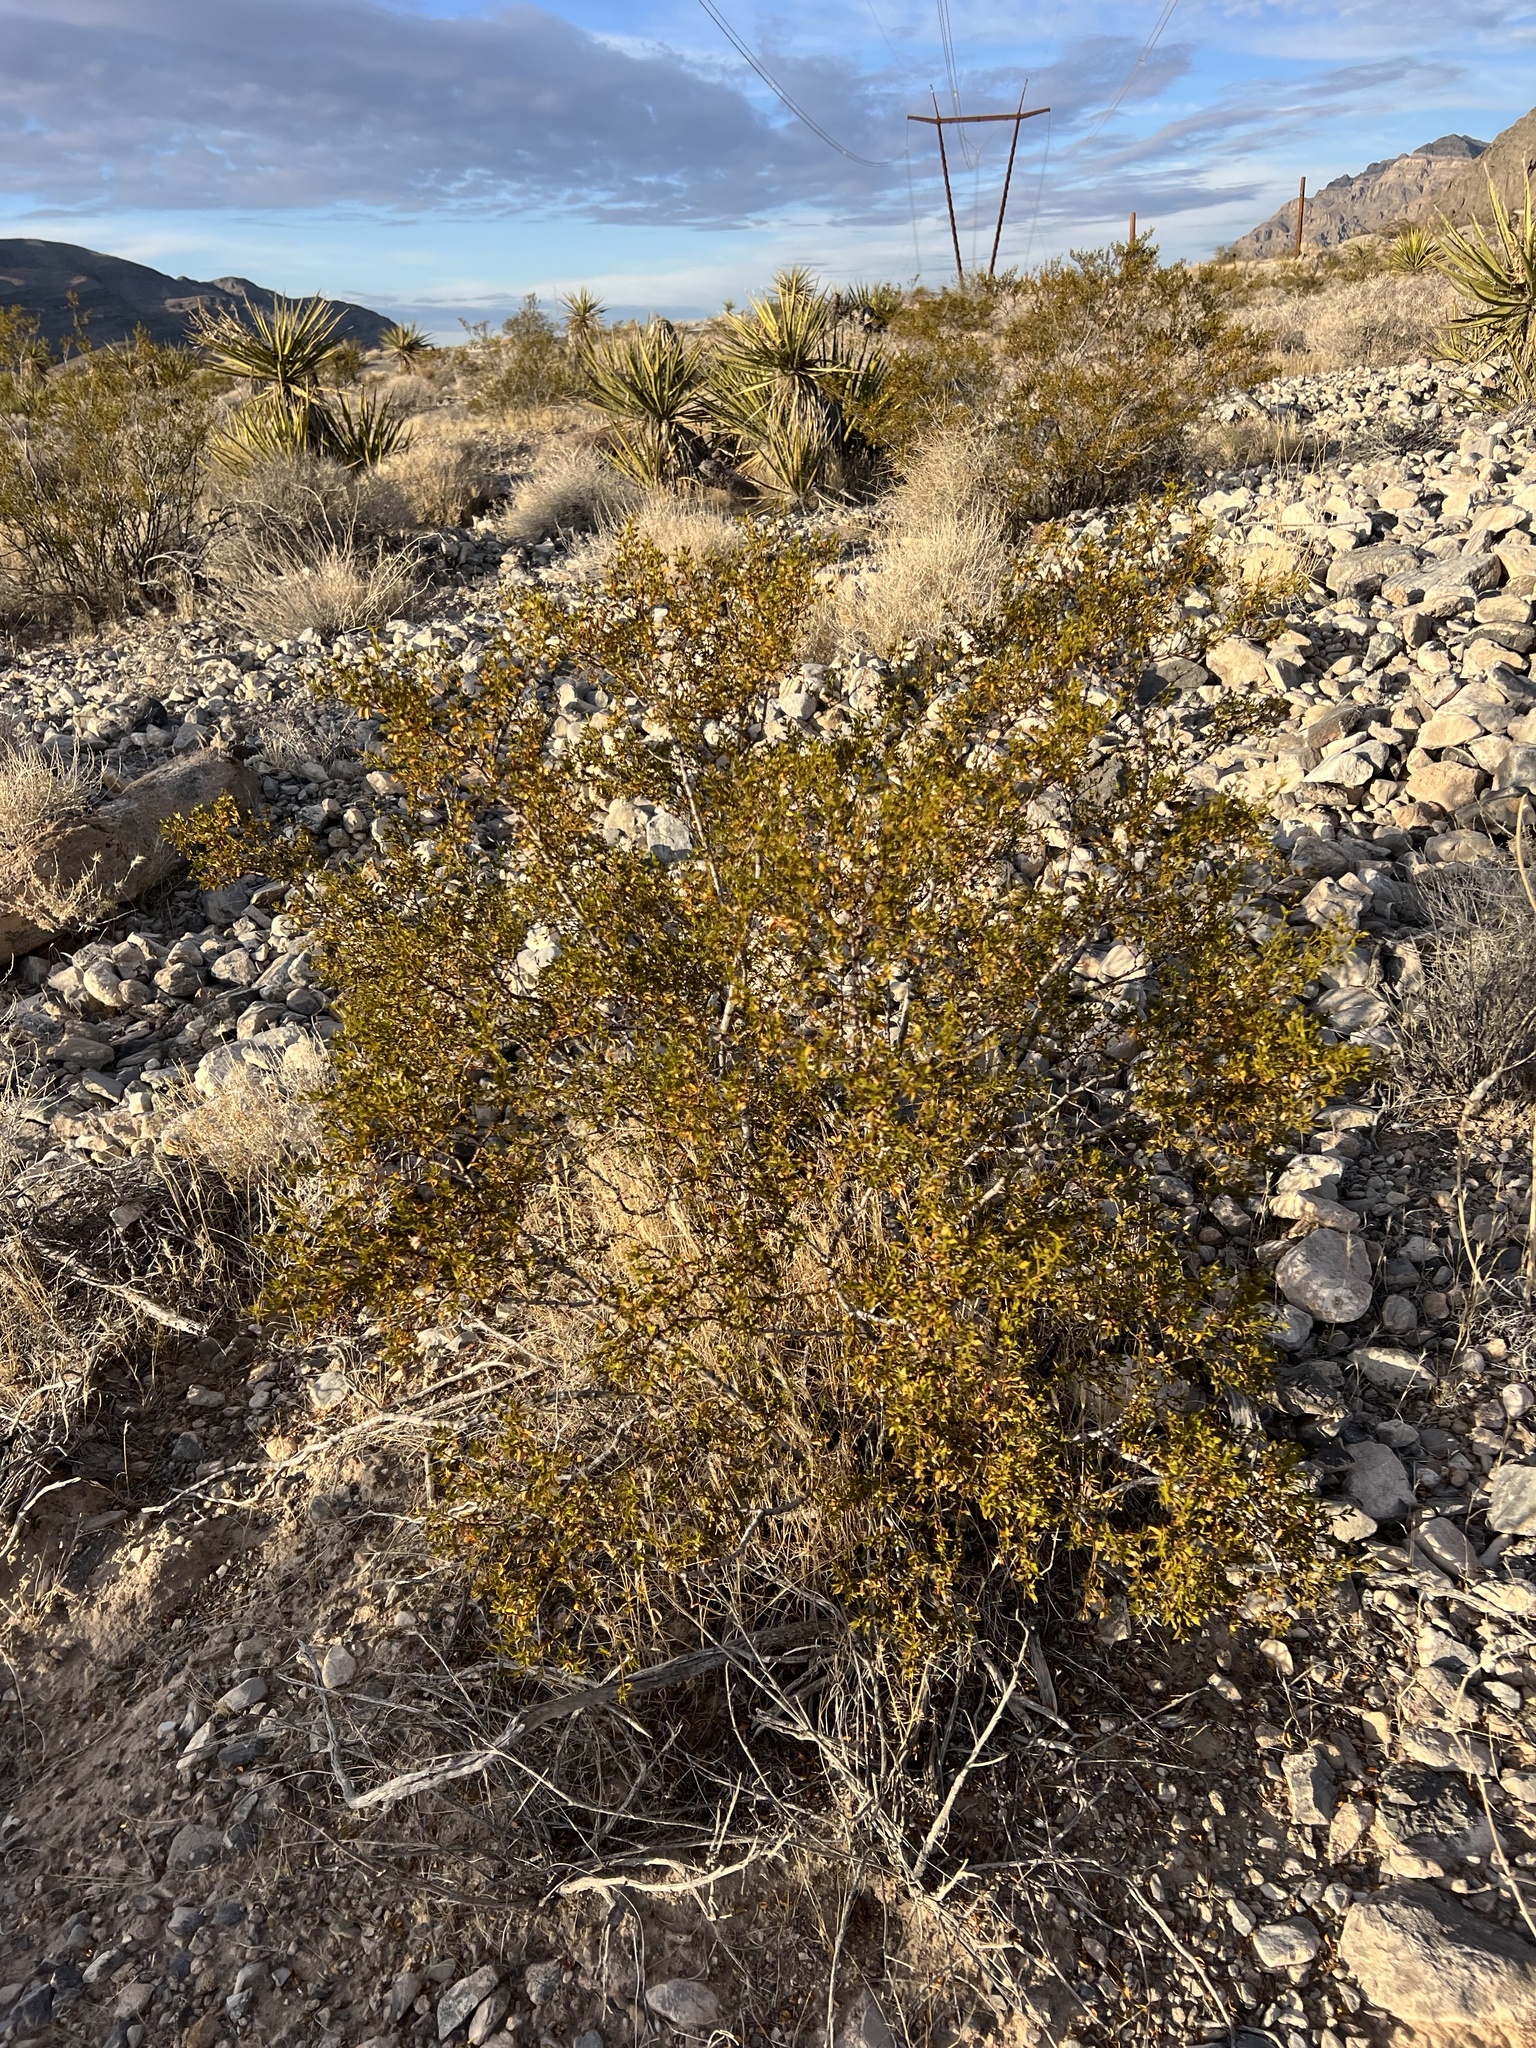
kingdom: Plantae
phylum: Tracheophyta
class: Magnoliopsida
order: Zygophyllales
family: Zygophyllaceae
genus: Larrea
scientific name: Larrea tridentata
